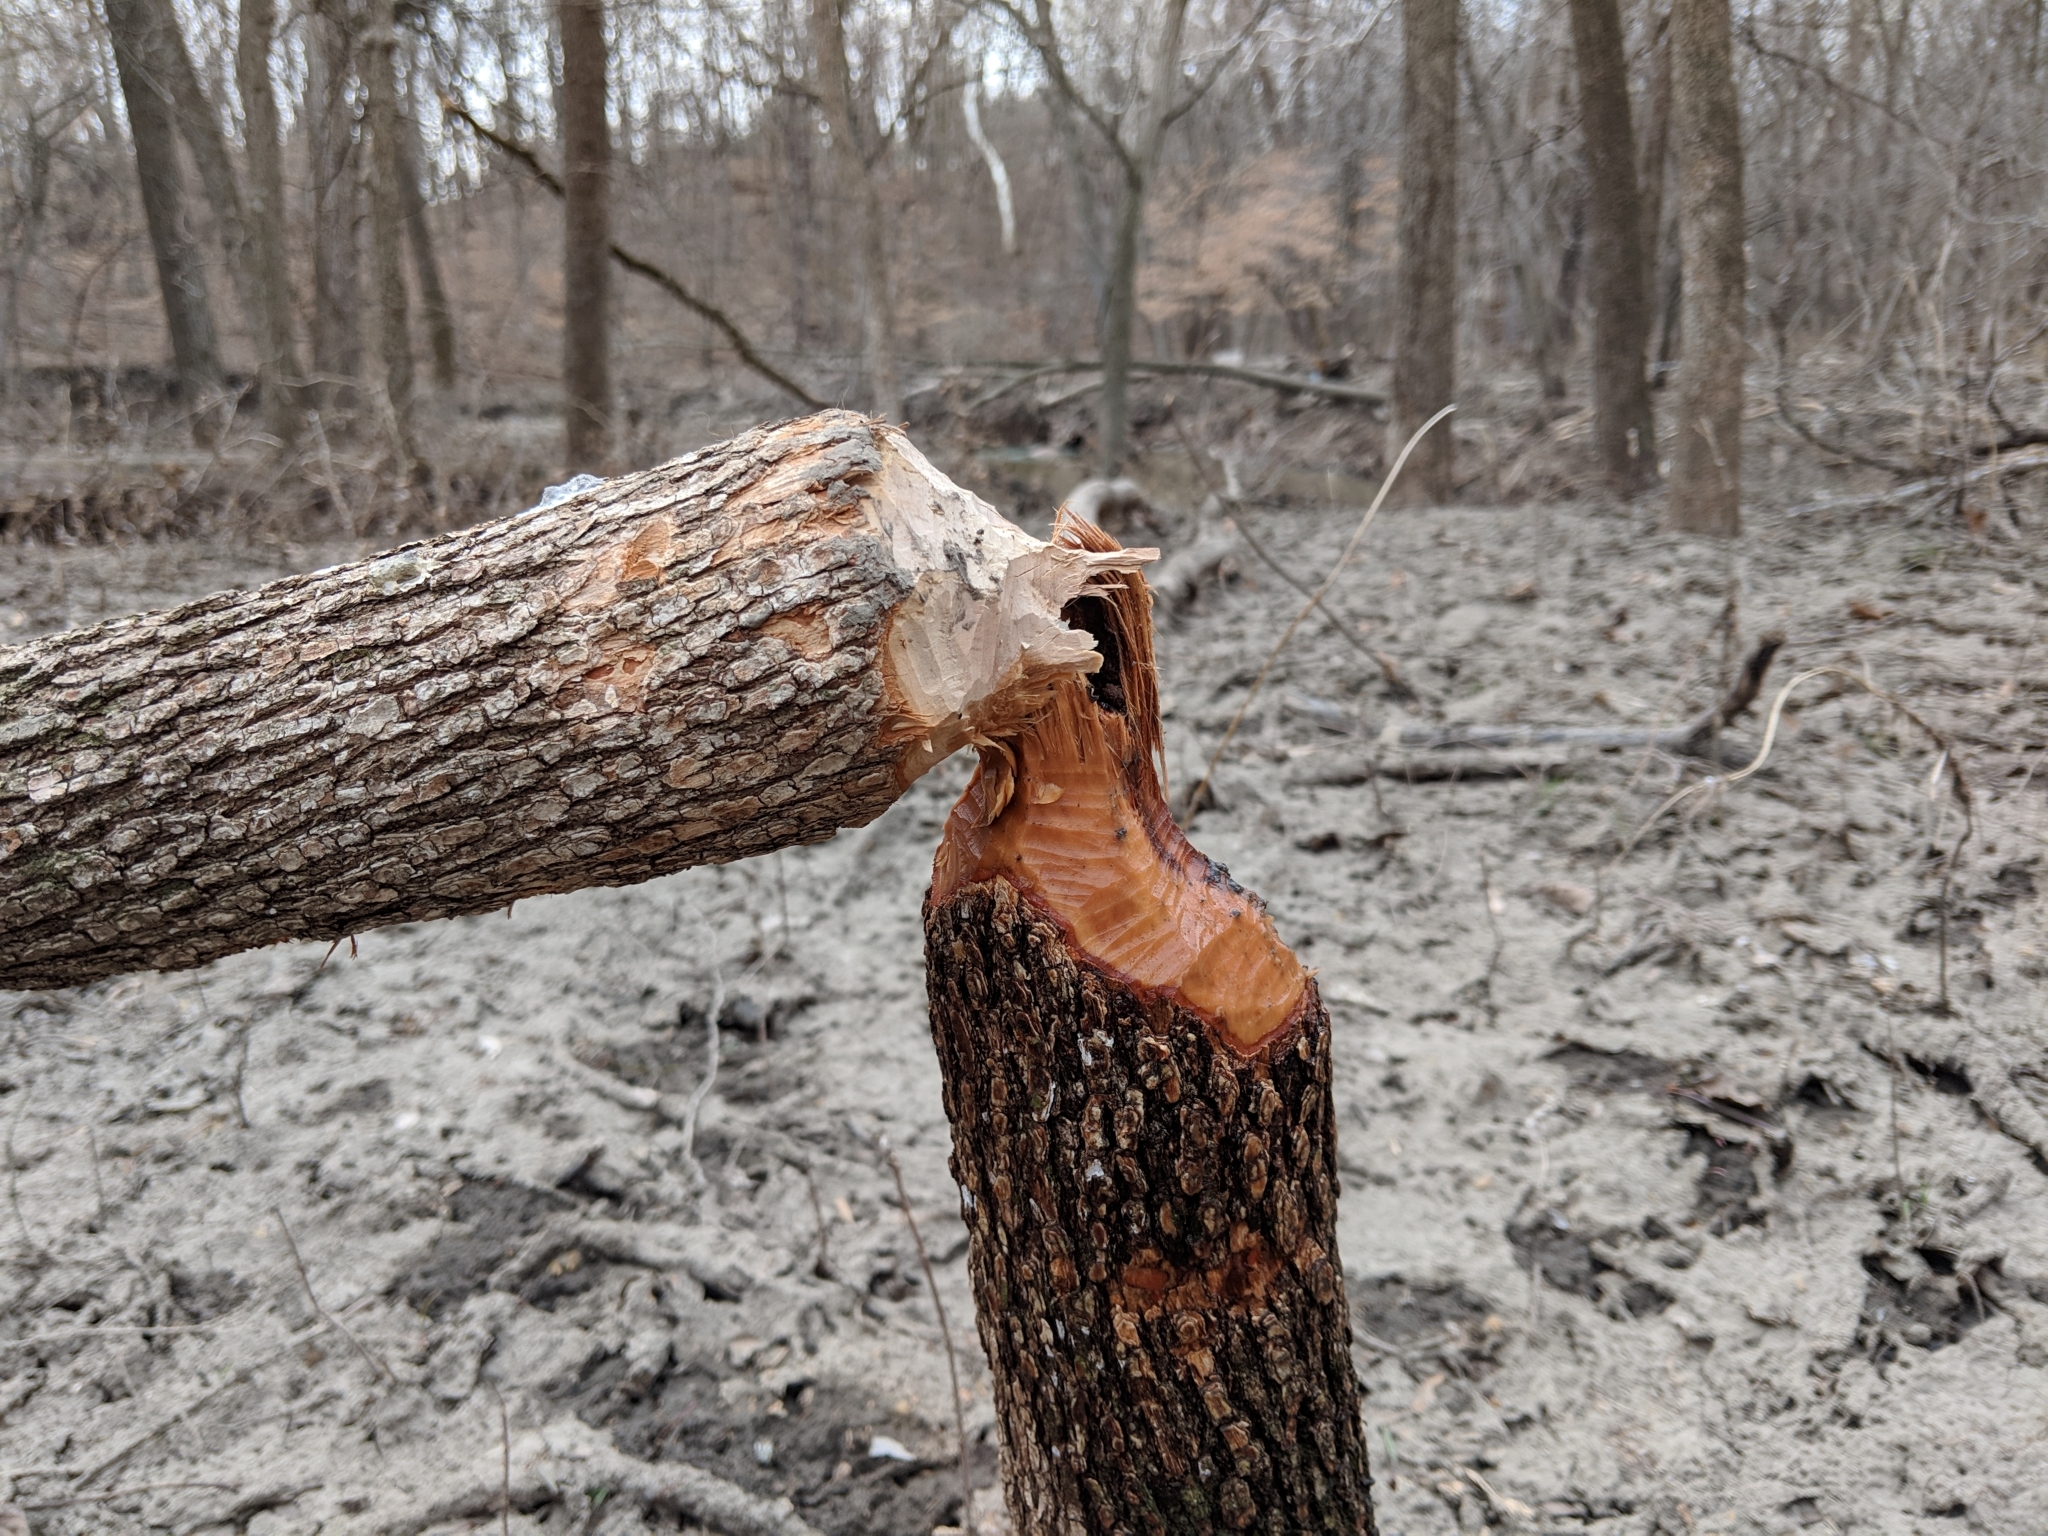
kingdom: Animalia
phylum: Chordata
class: Mammalia
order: Rodentia
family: Castoridae
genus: Castor
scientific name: Castor canadensis
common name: American beaver
